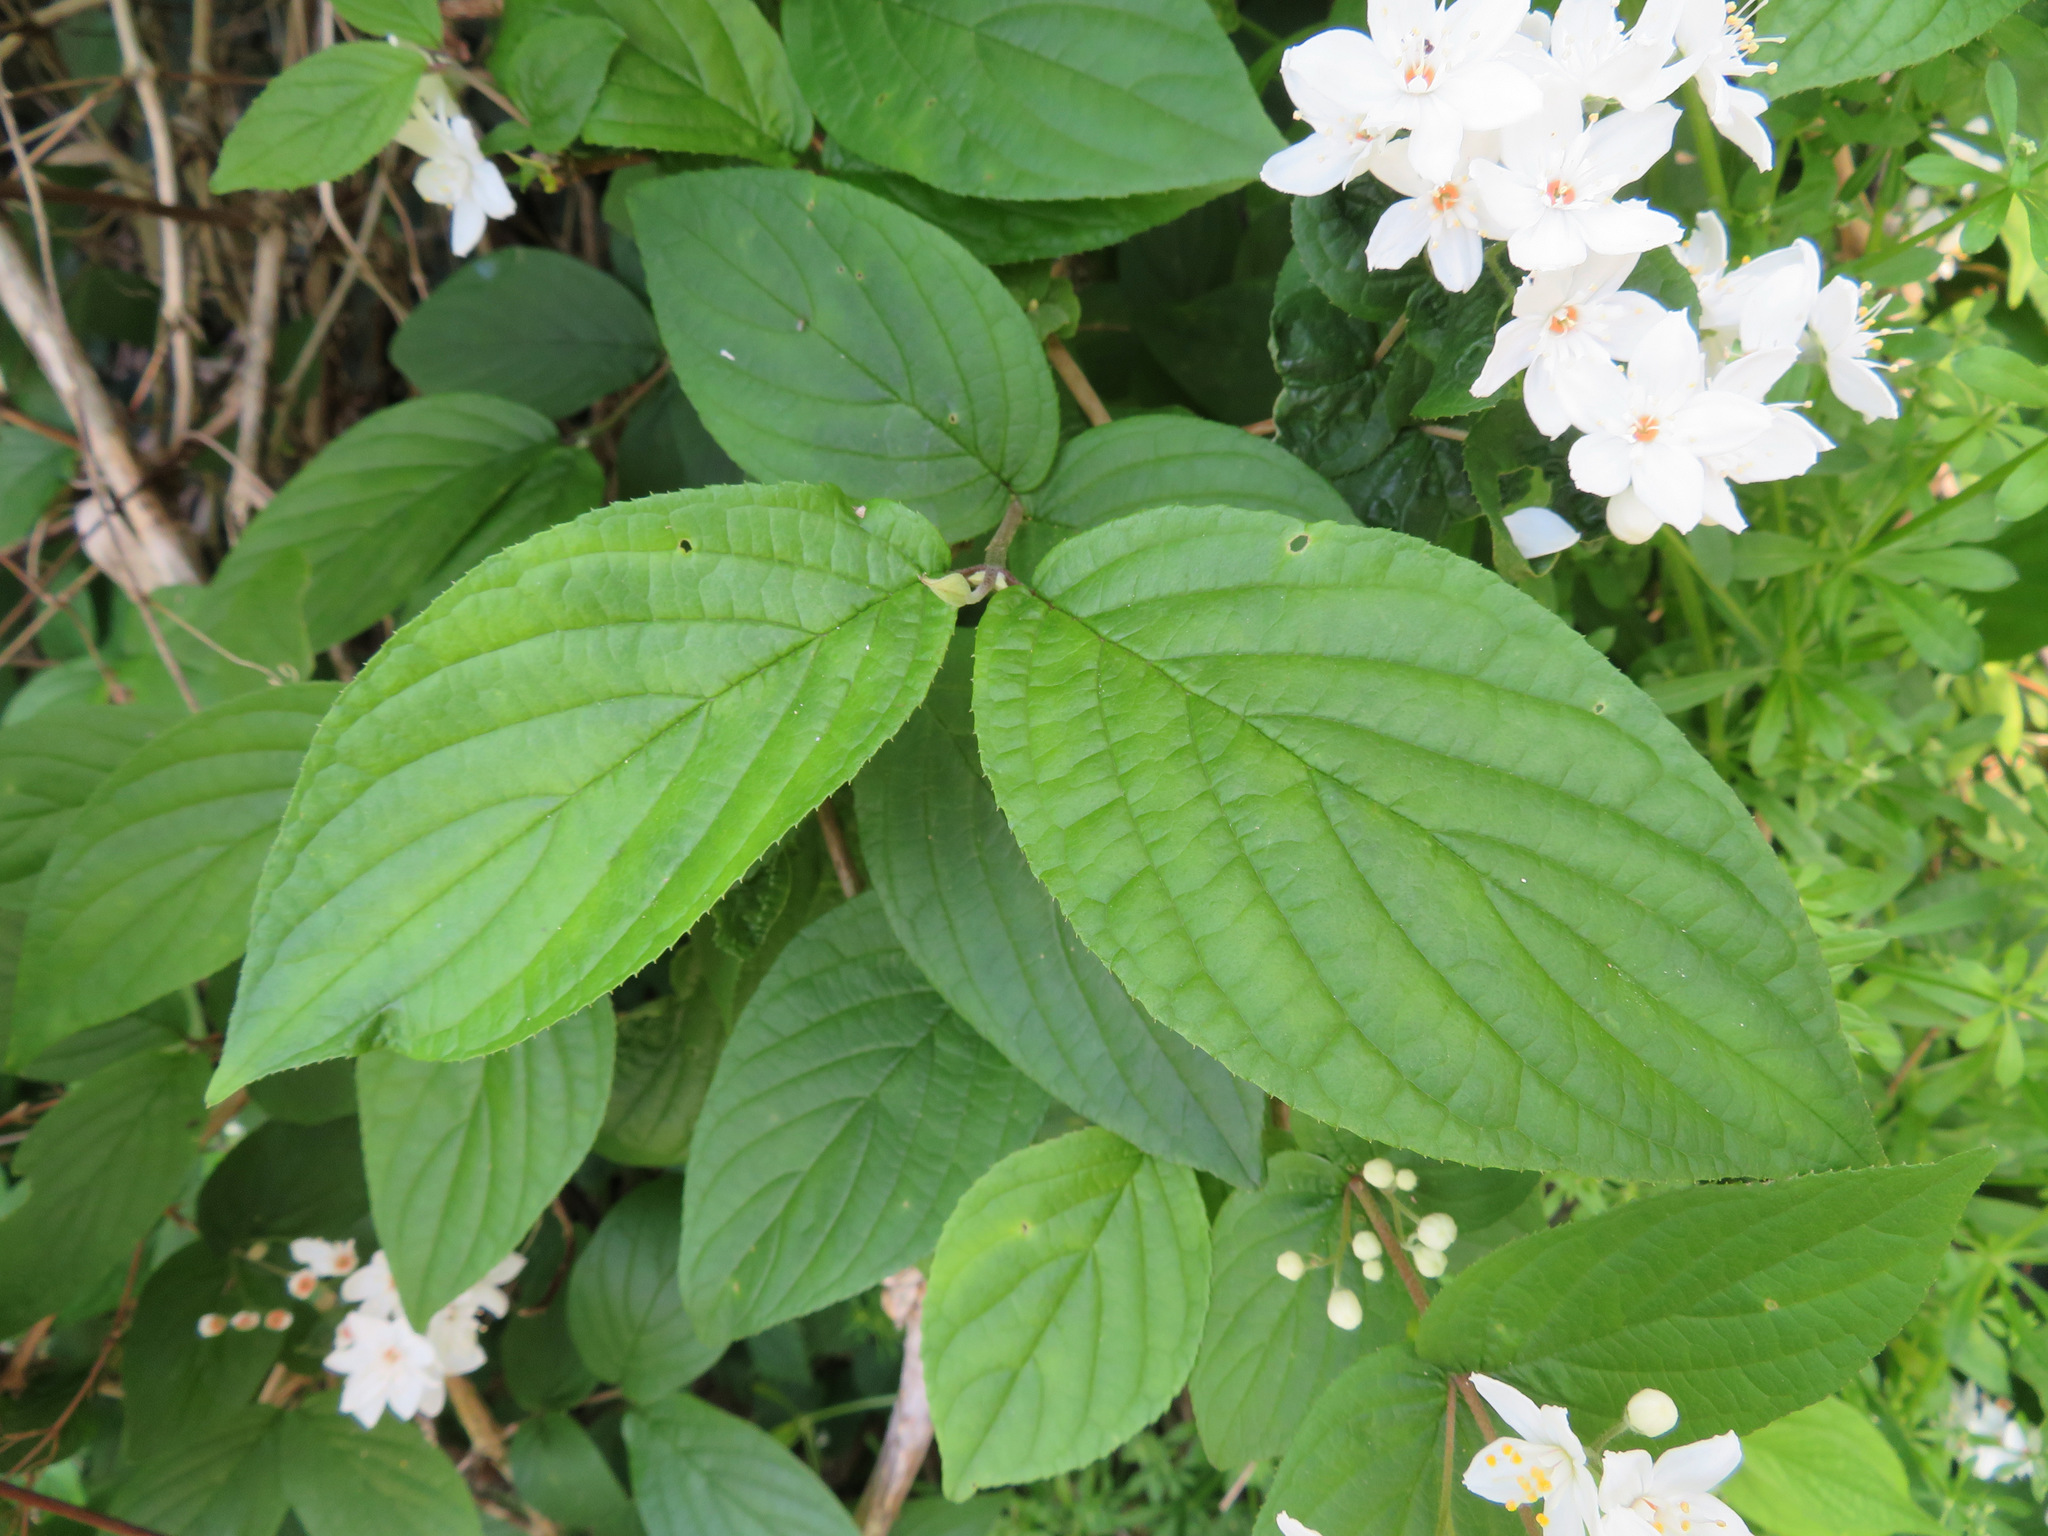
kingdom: Plantae
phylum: Tracheophyta
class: Magnoliopsida
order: Cornales
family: Hydrangeaceae
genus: Deutzia
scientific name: Deutzia scabra
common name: Deutzia
